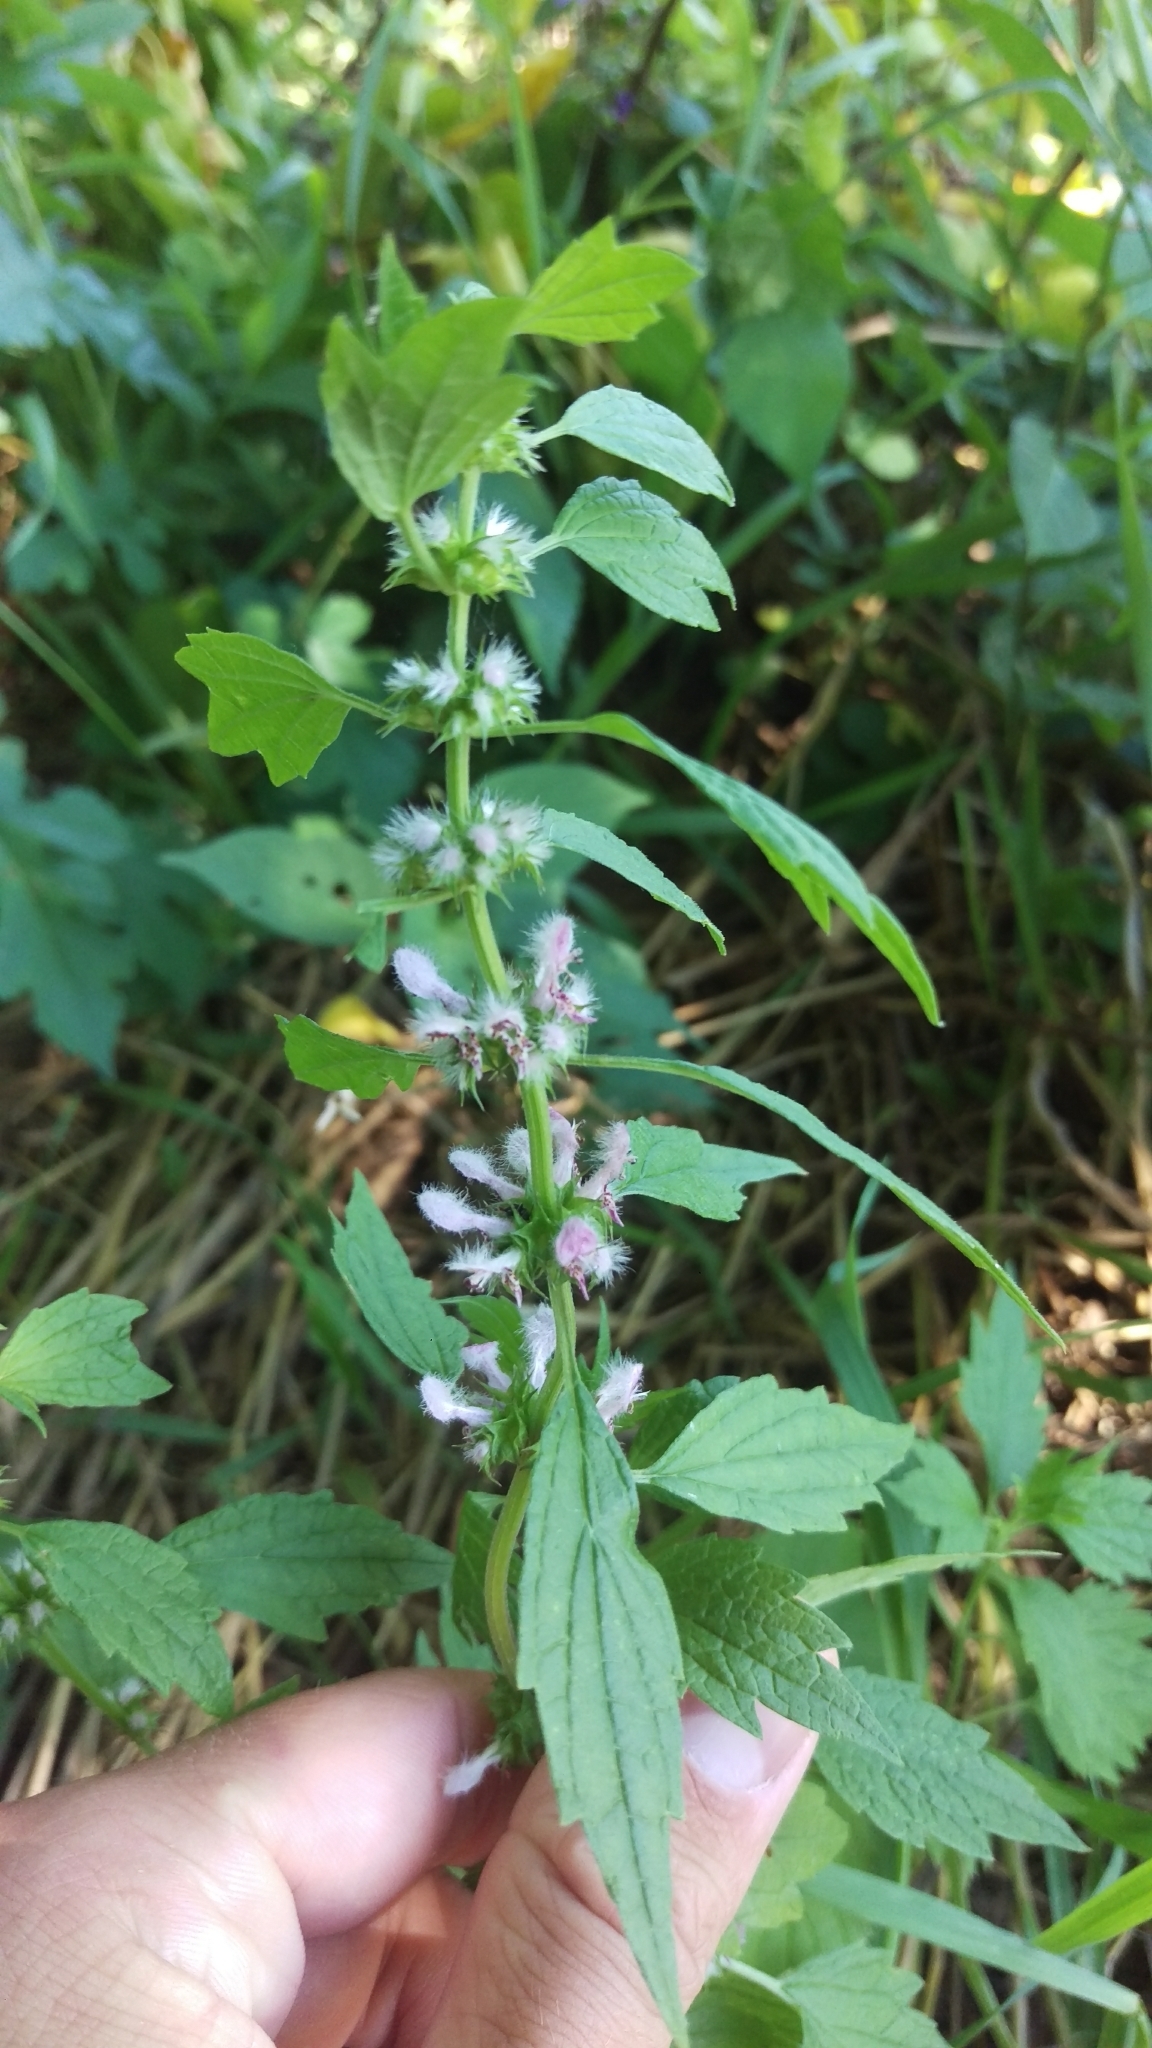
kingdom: Plantae
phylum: Tracheophyta
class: Magnoliopsida
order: Lamiales
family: Lamiaceae
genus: Leonurus
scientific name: Leonurus cardiaca
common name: Motherwort
